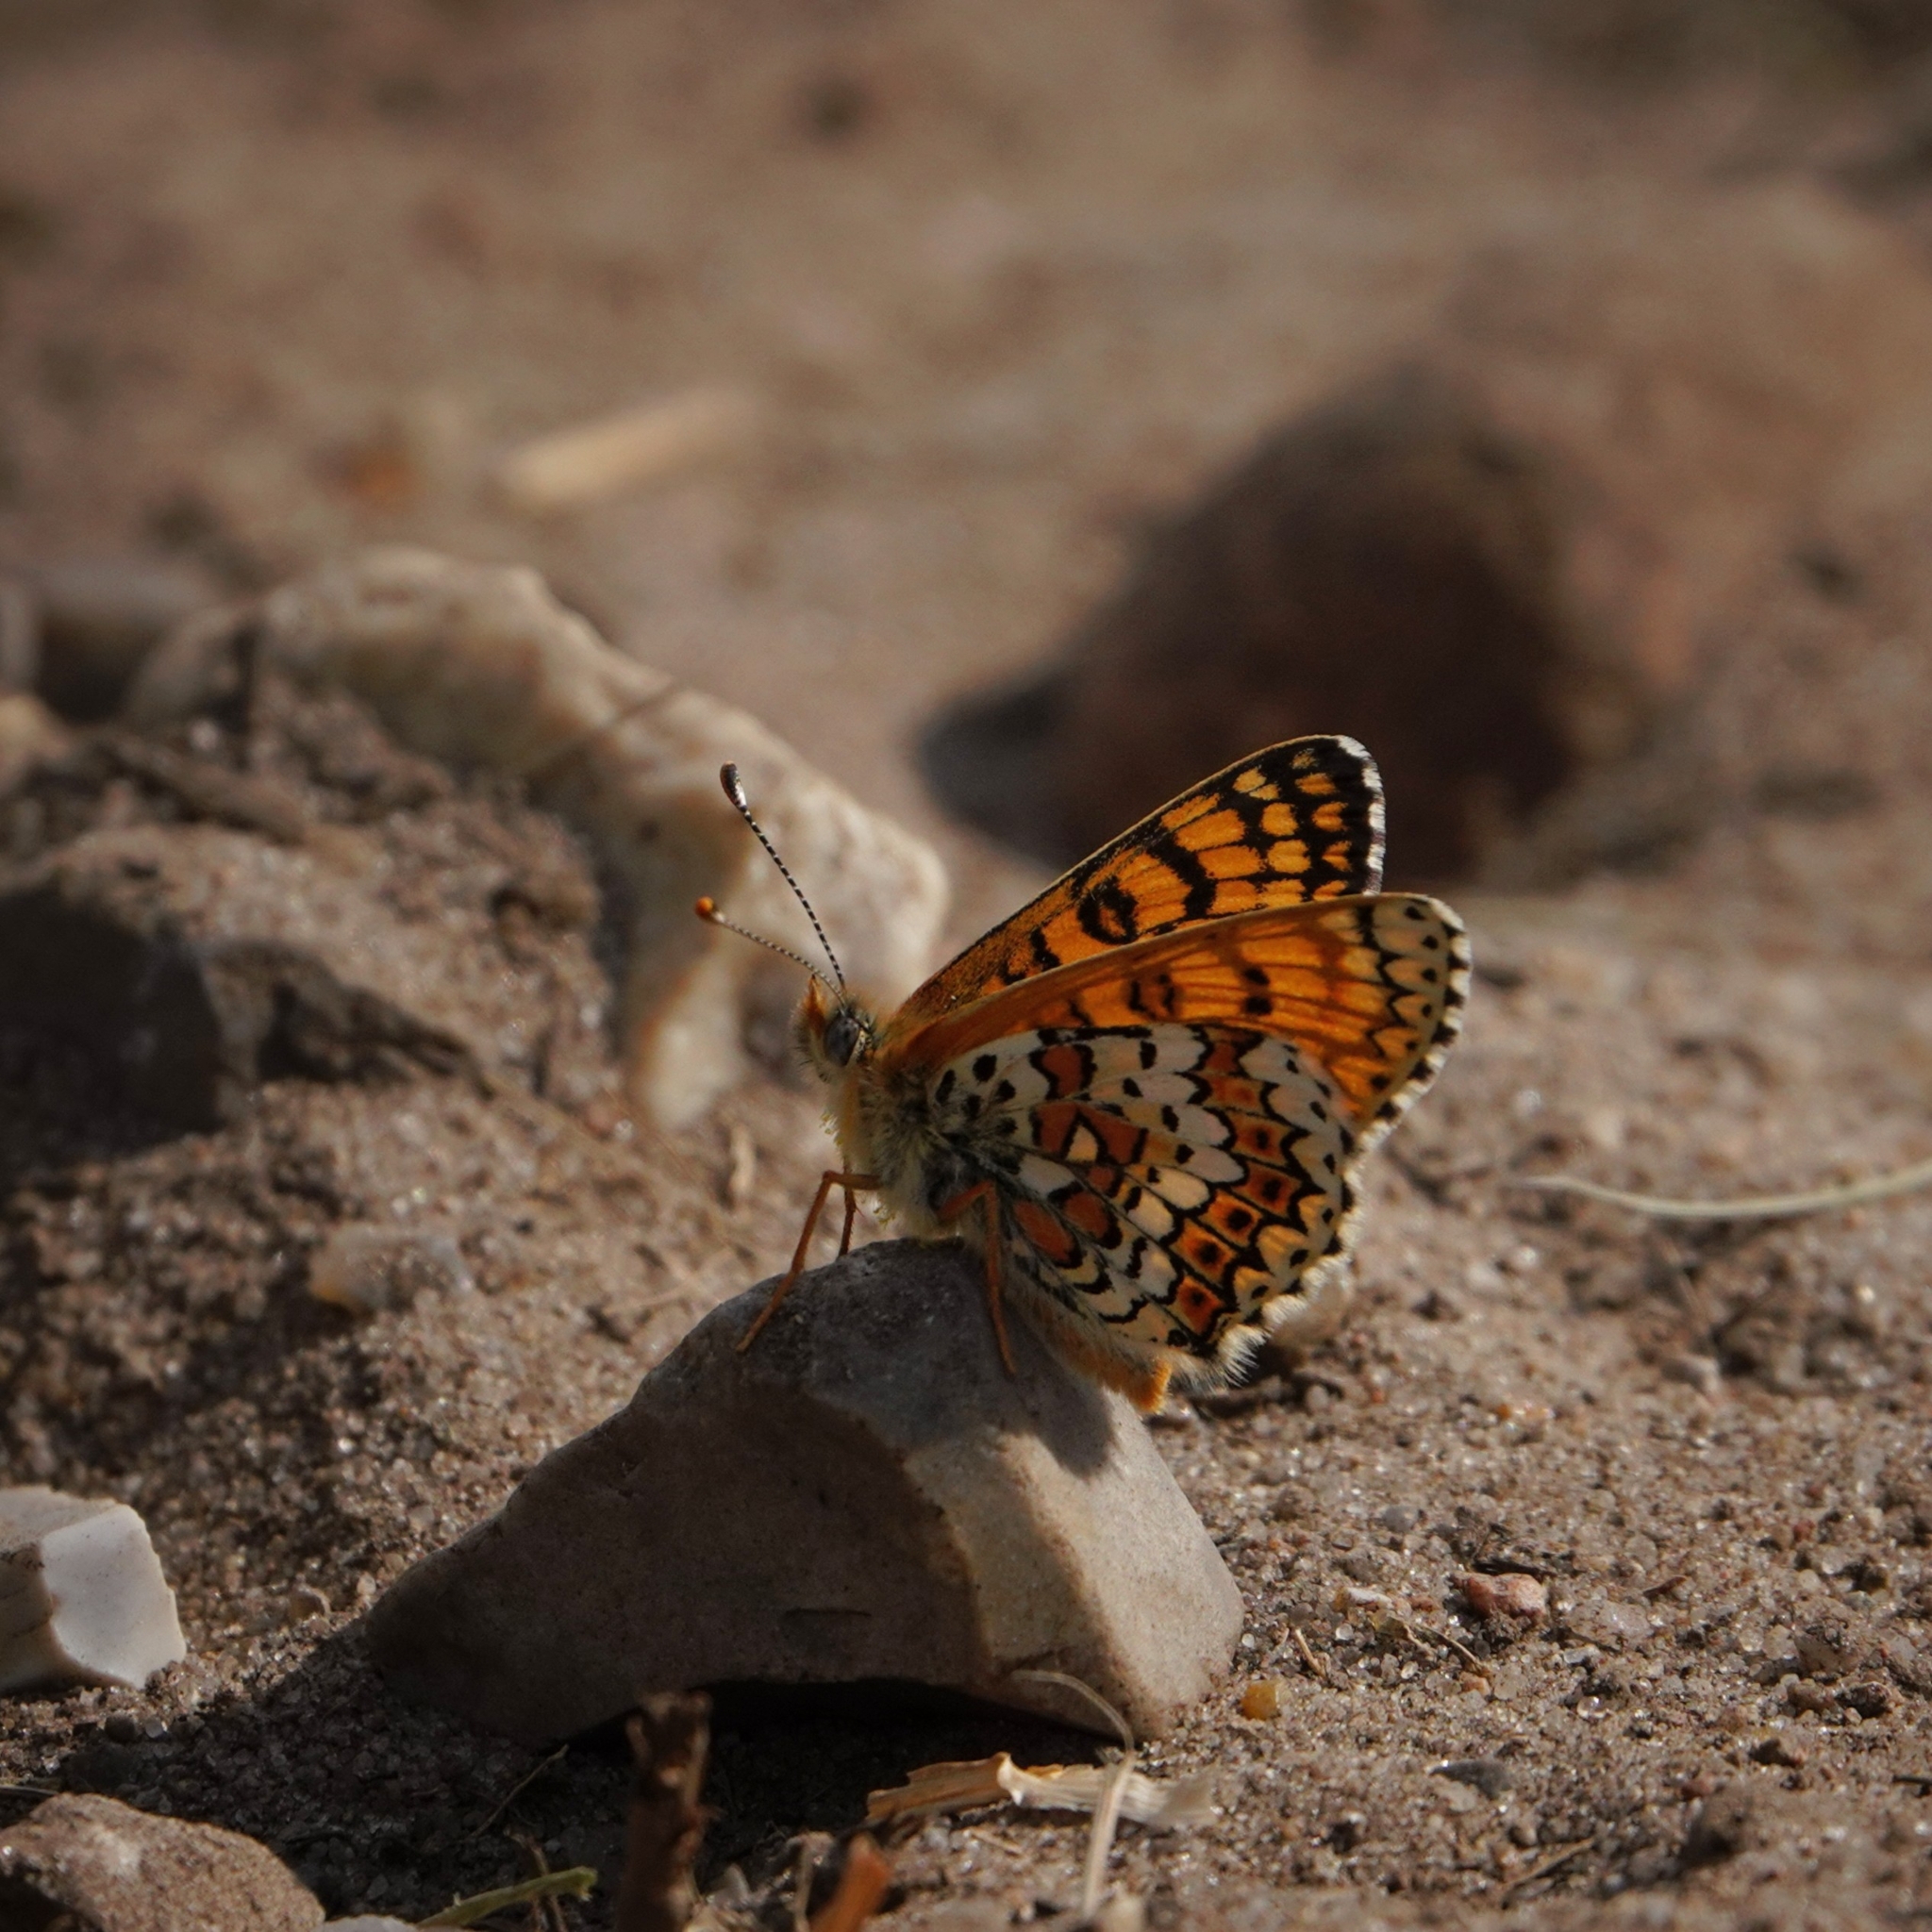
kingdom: Animalia
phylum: Arthropoda
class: Insecta
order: Lepidoptera
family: Nymphalidae
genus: Melitaea
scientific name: Melitaea cinxia
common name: Glanville fritillary
